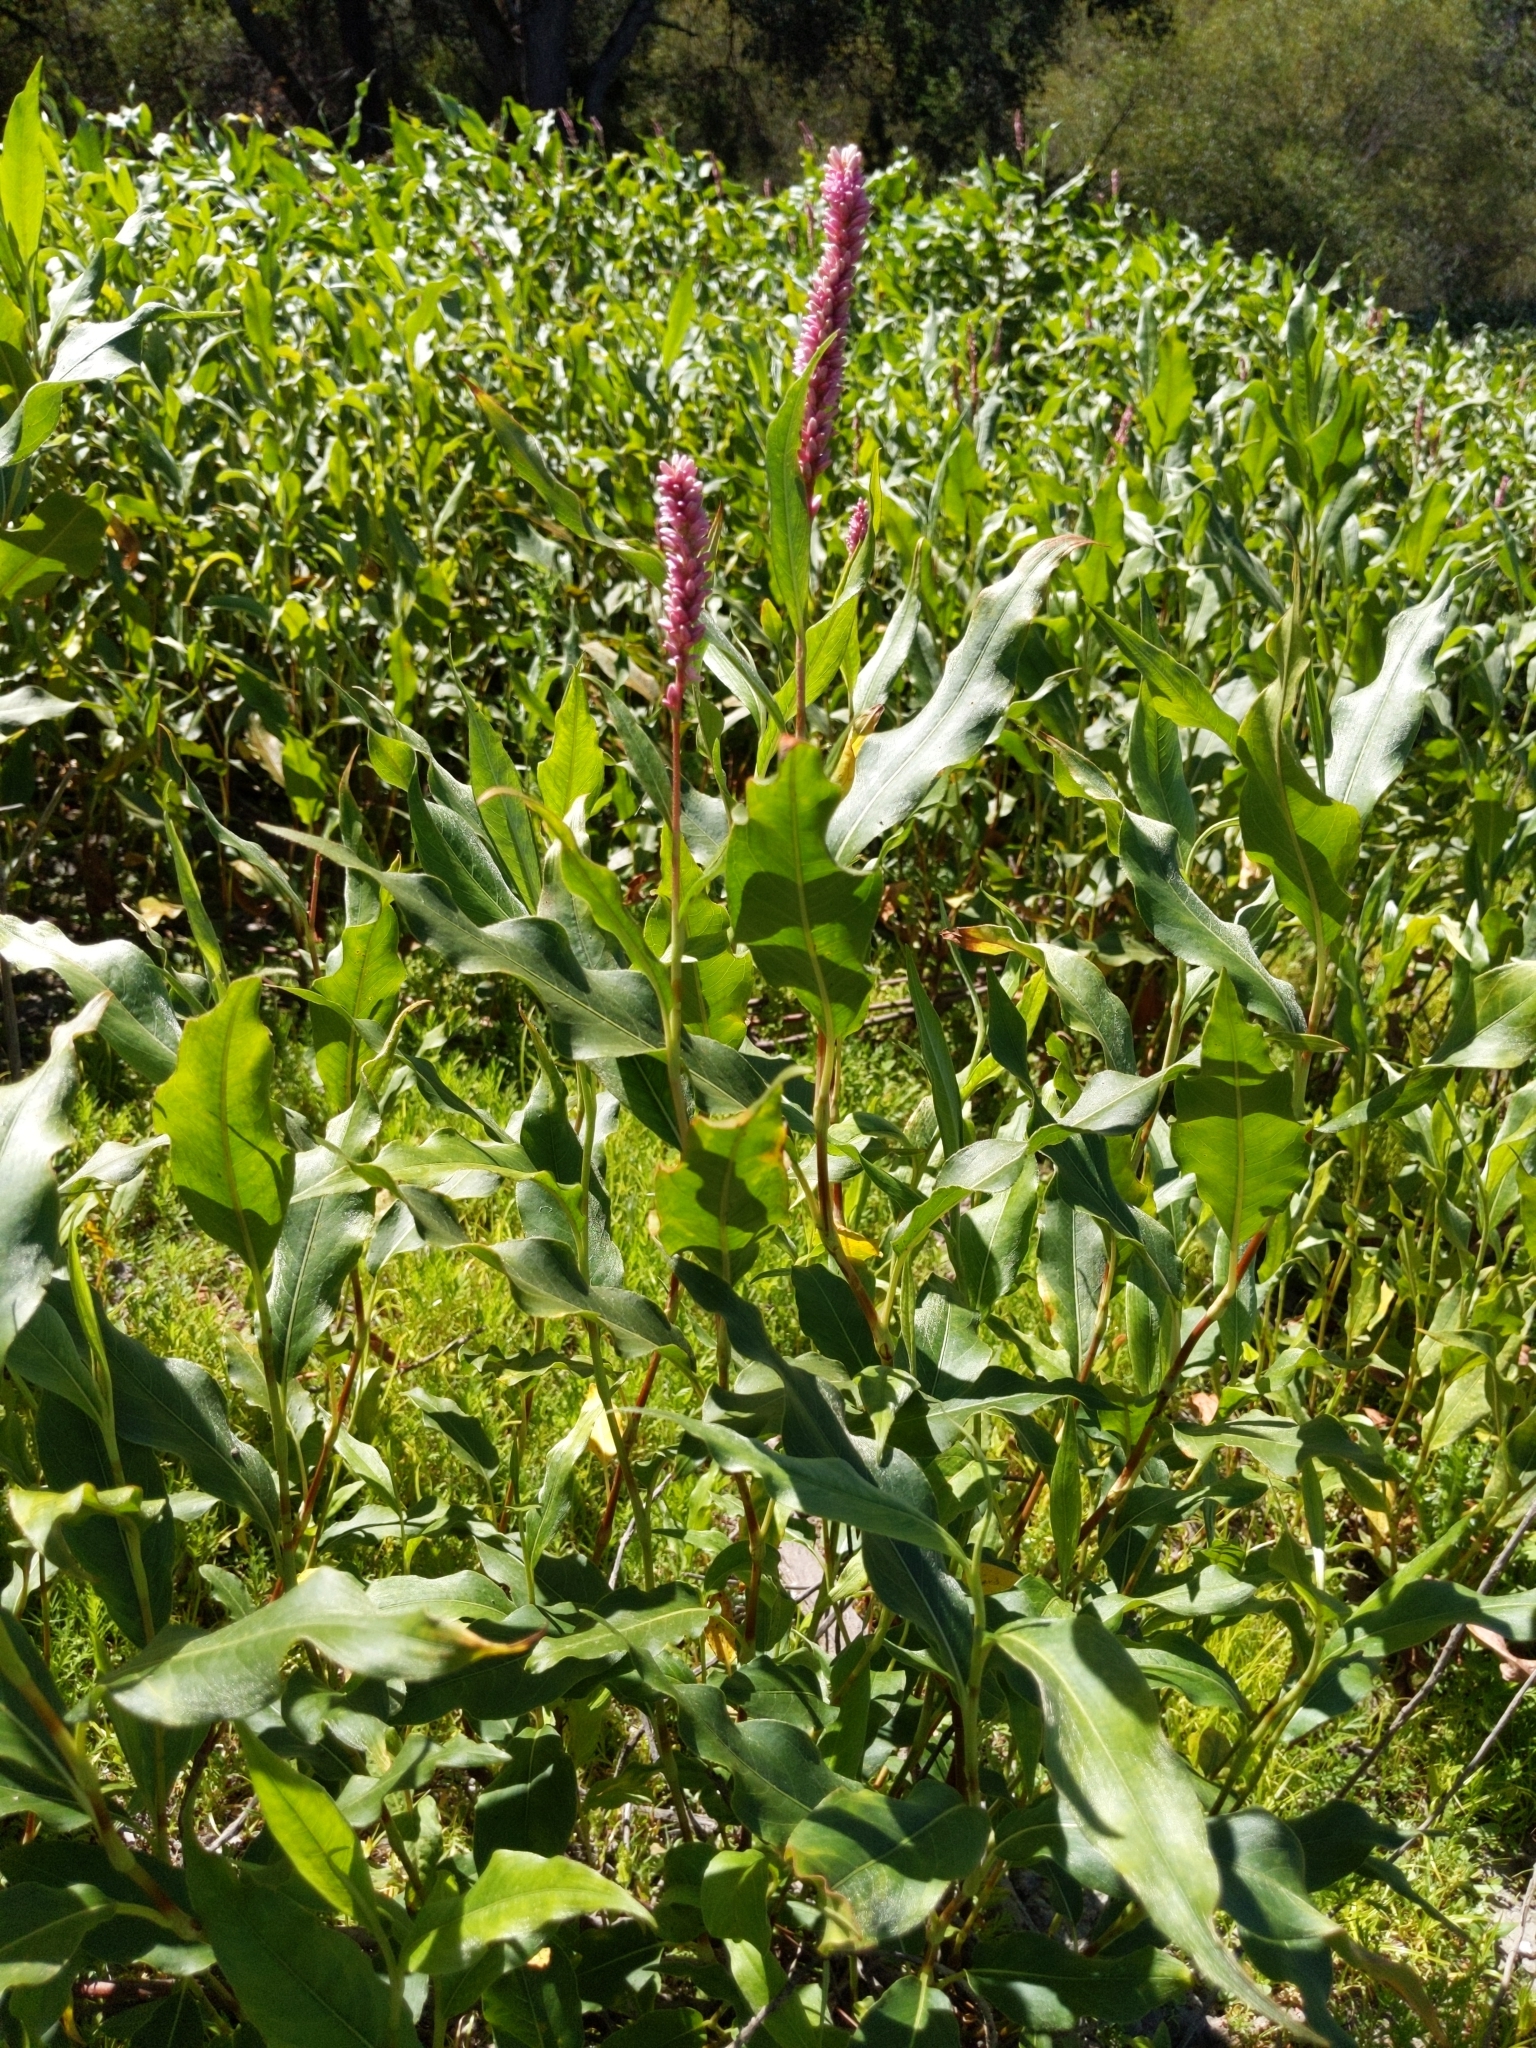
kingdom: Plantae
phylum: Tracheophyta
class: Magnoliopsida
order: Caryophyllales
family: Polygonaceae
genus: Persicaria
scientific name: Persicaria amphibia
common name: Amphibious bistort
